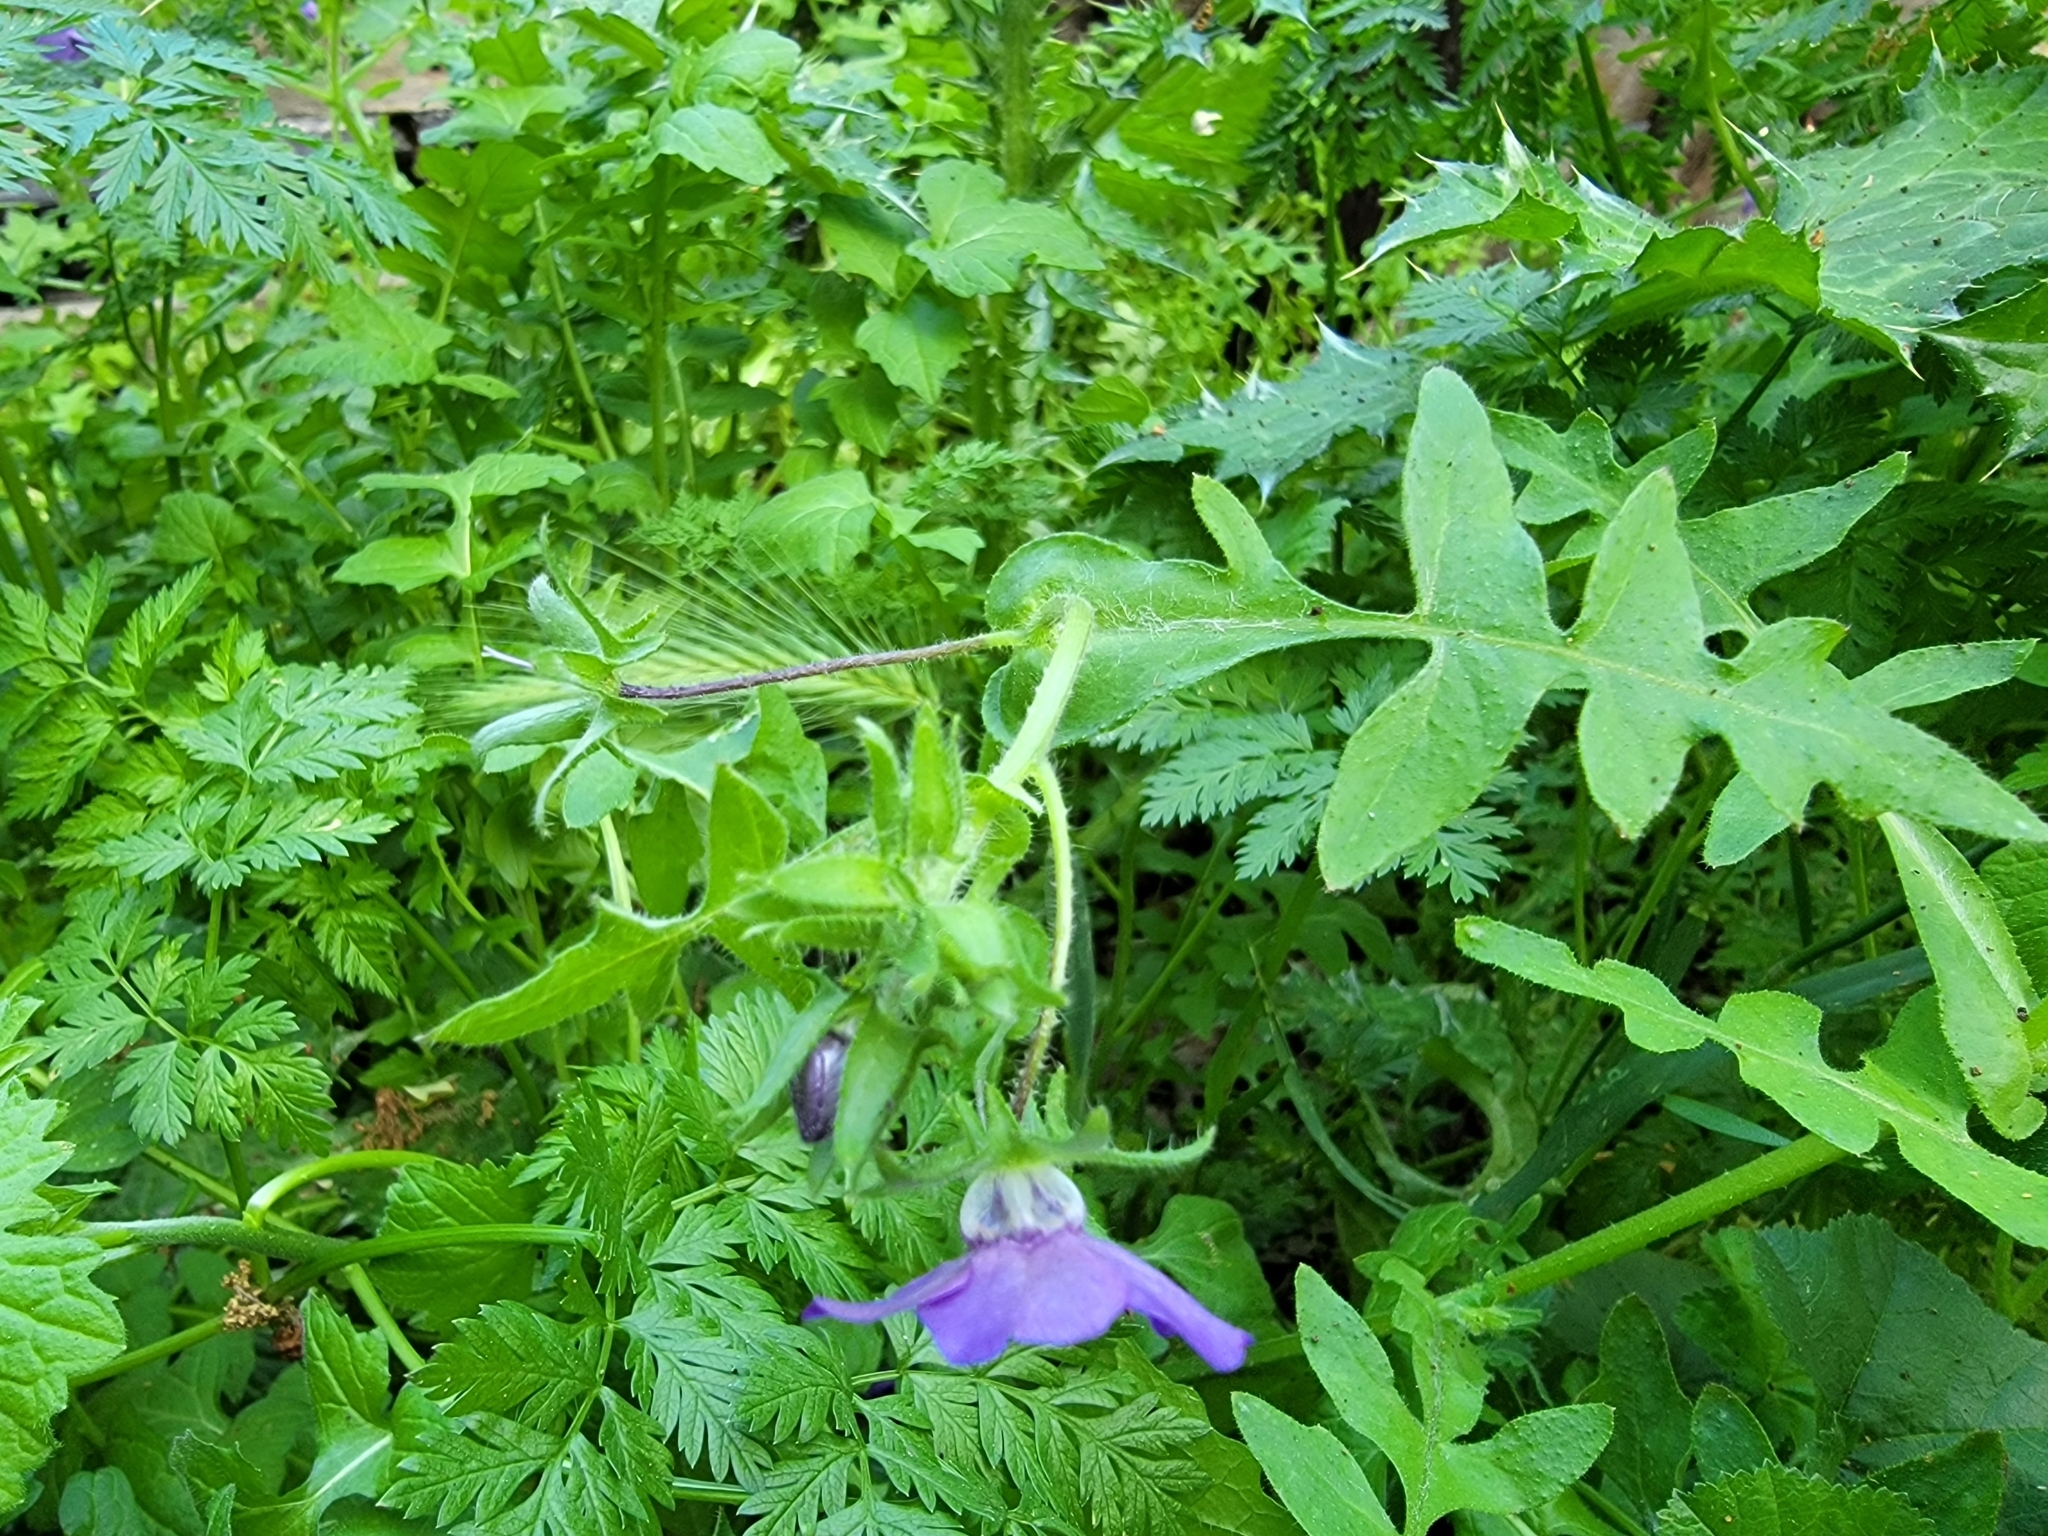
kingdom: Plantae
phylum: Tracheophyta
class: Magnoliopsida
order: Boraginales
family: Hydrophyllaceae
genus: Pholistoma
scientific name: Pholistoma auritum
